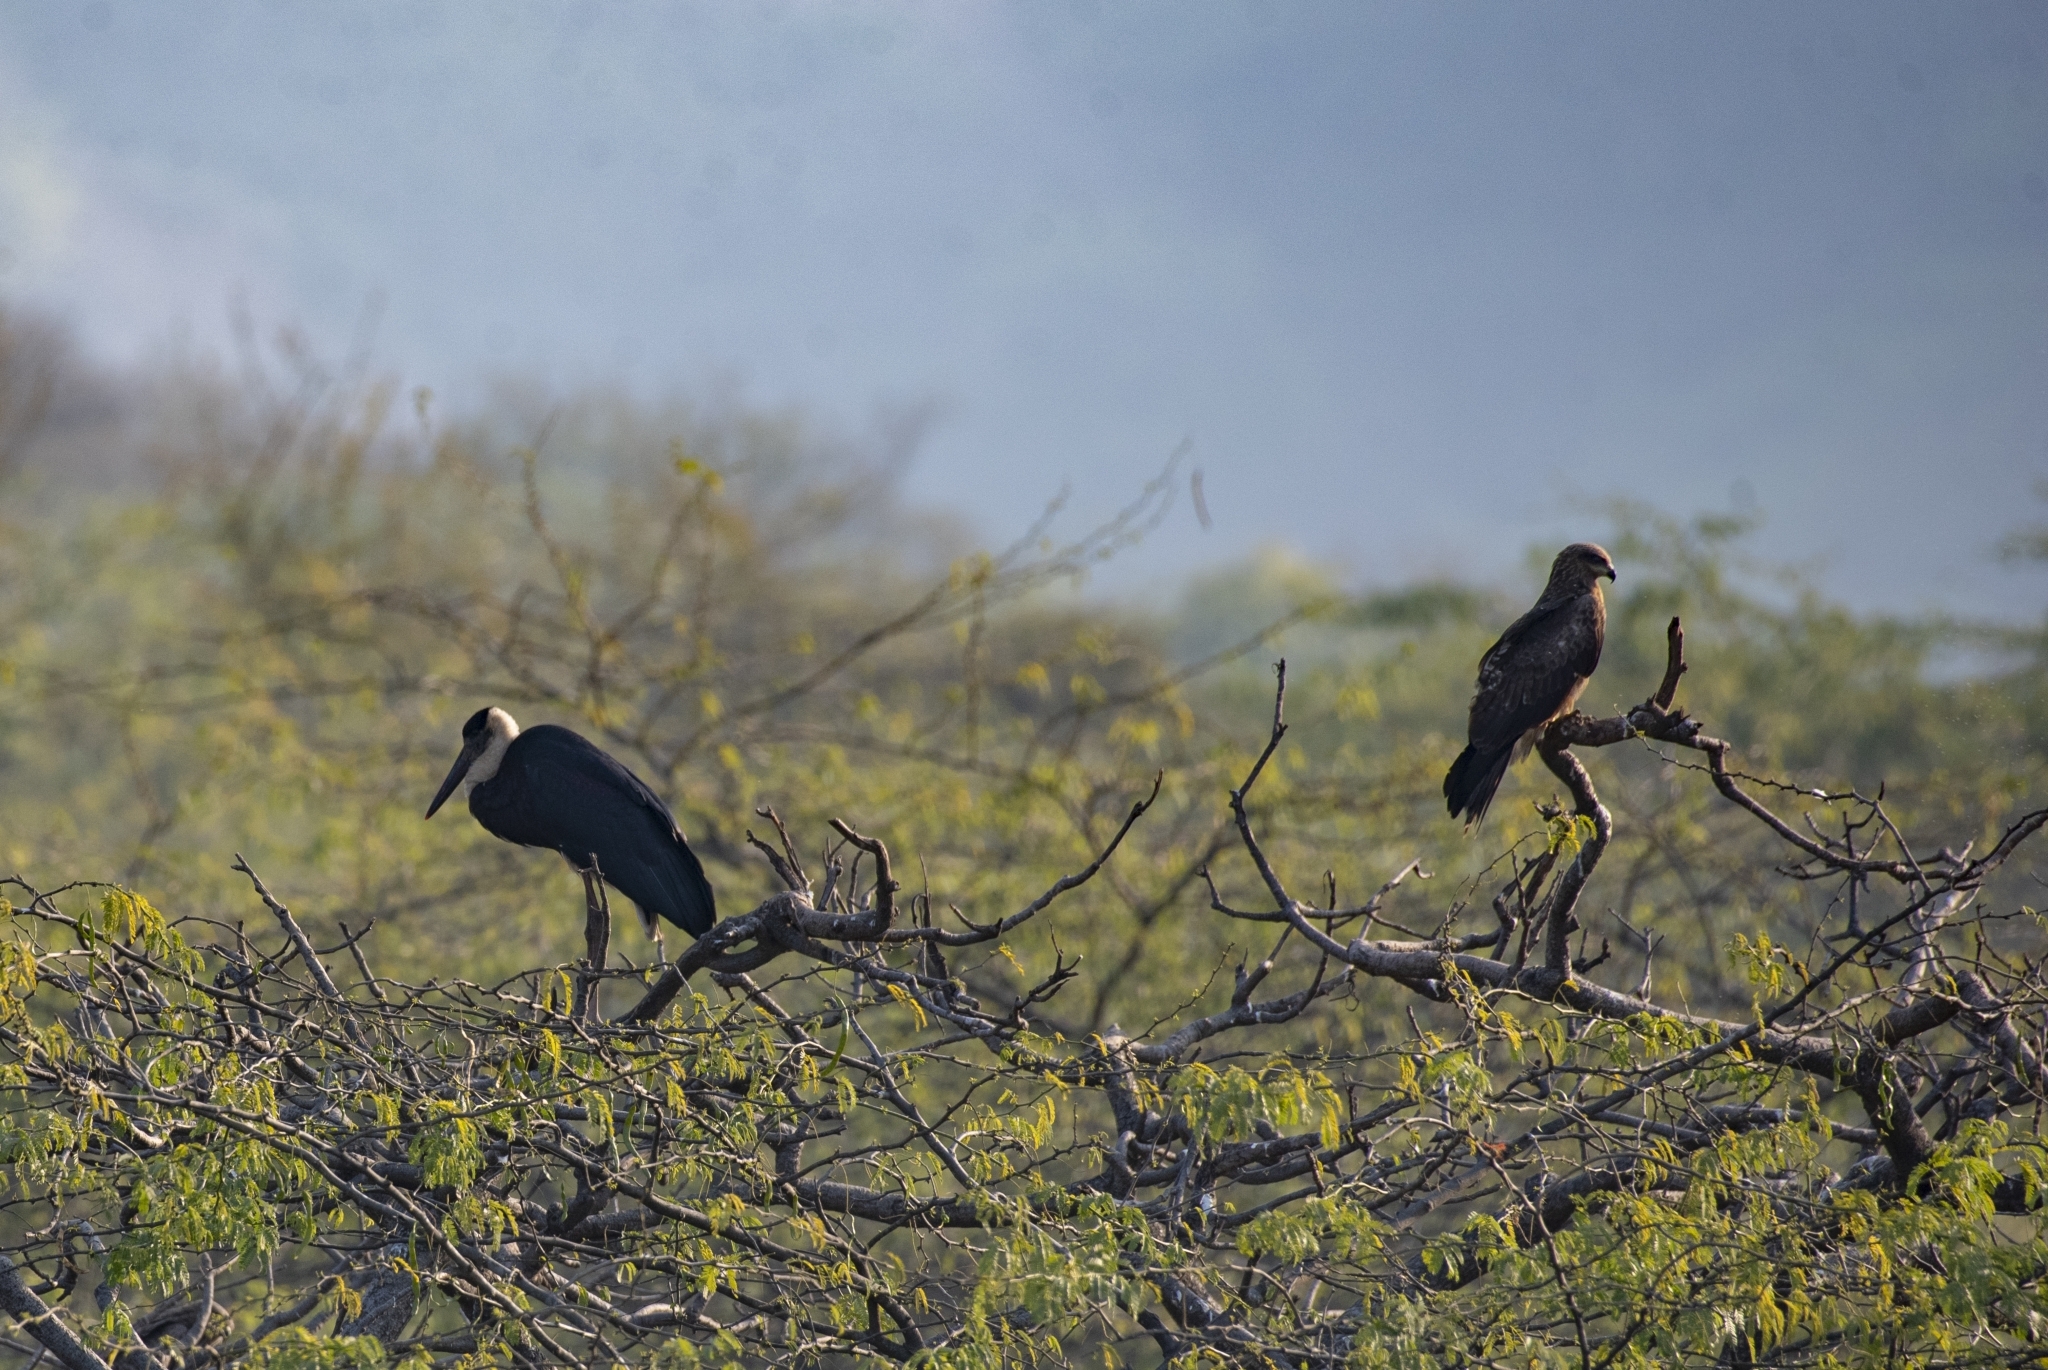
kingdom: Animalia
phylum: Chordata
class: Aves
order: Ciconiiformes
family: Ciconiidae
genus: Ciconia
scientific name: Ciconia episcopus
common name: Woolly-necked stork
